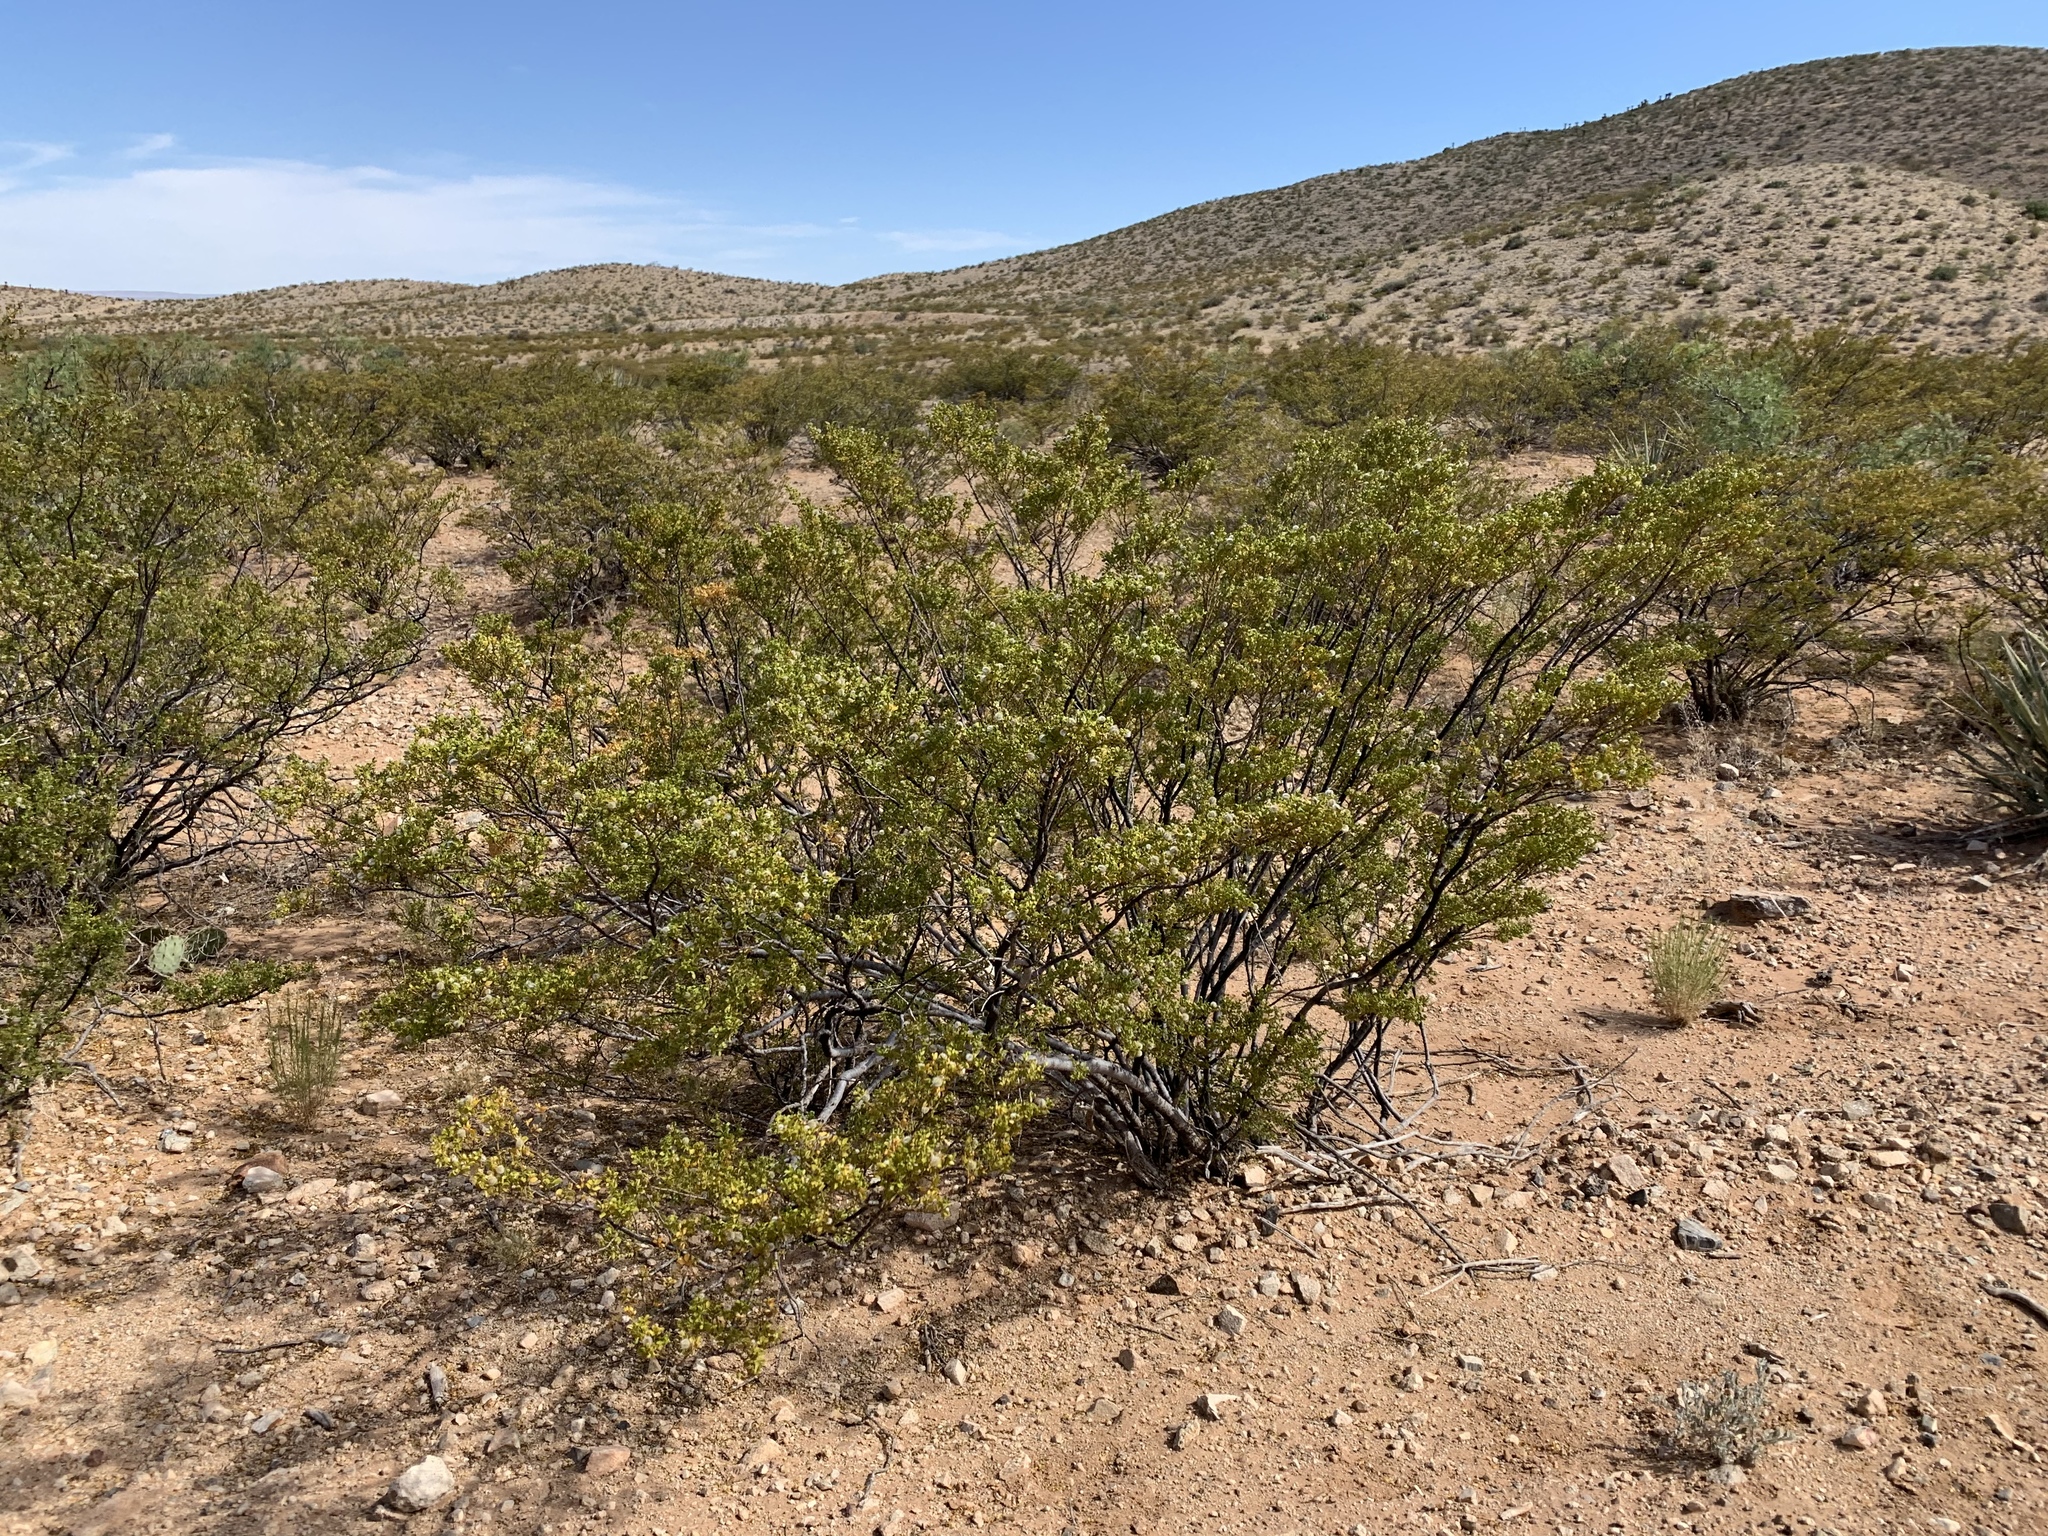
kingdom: Plantae
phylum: Tracheophyta
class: Magnoliopsida
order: Zygophyllales
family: Zygophyllaceae
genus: Larrea
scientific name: Larrea tridentata
